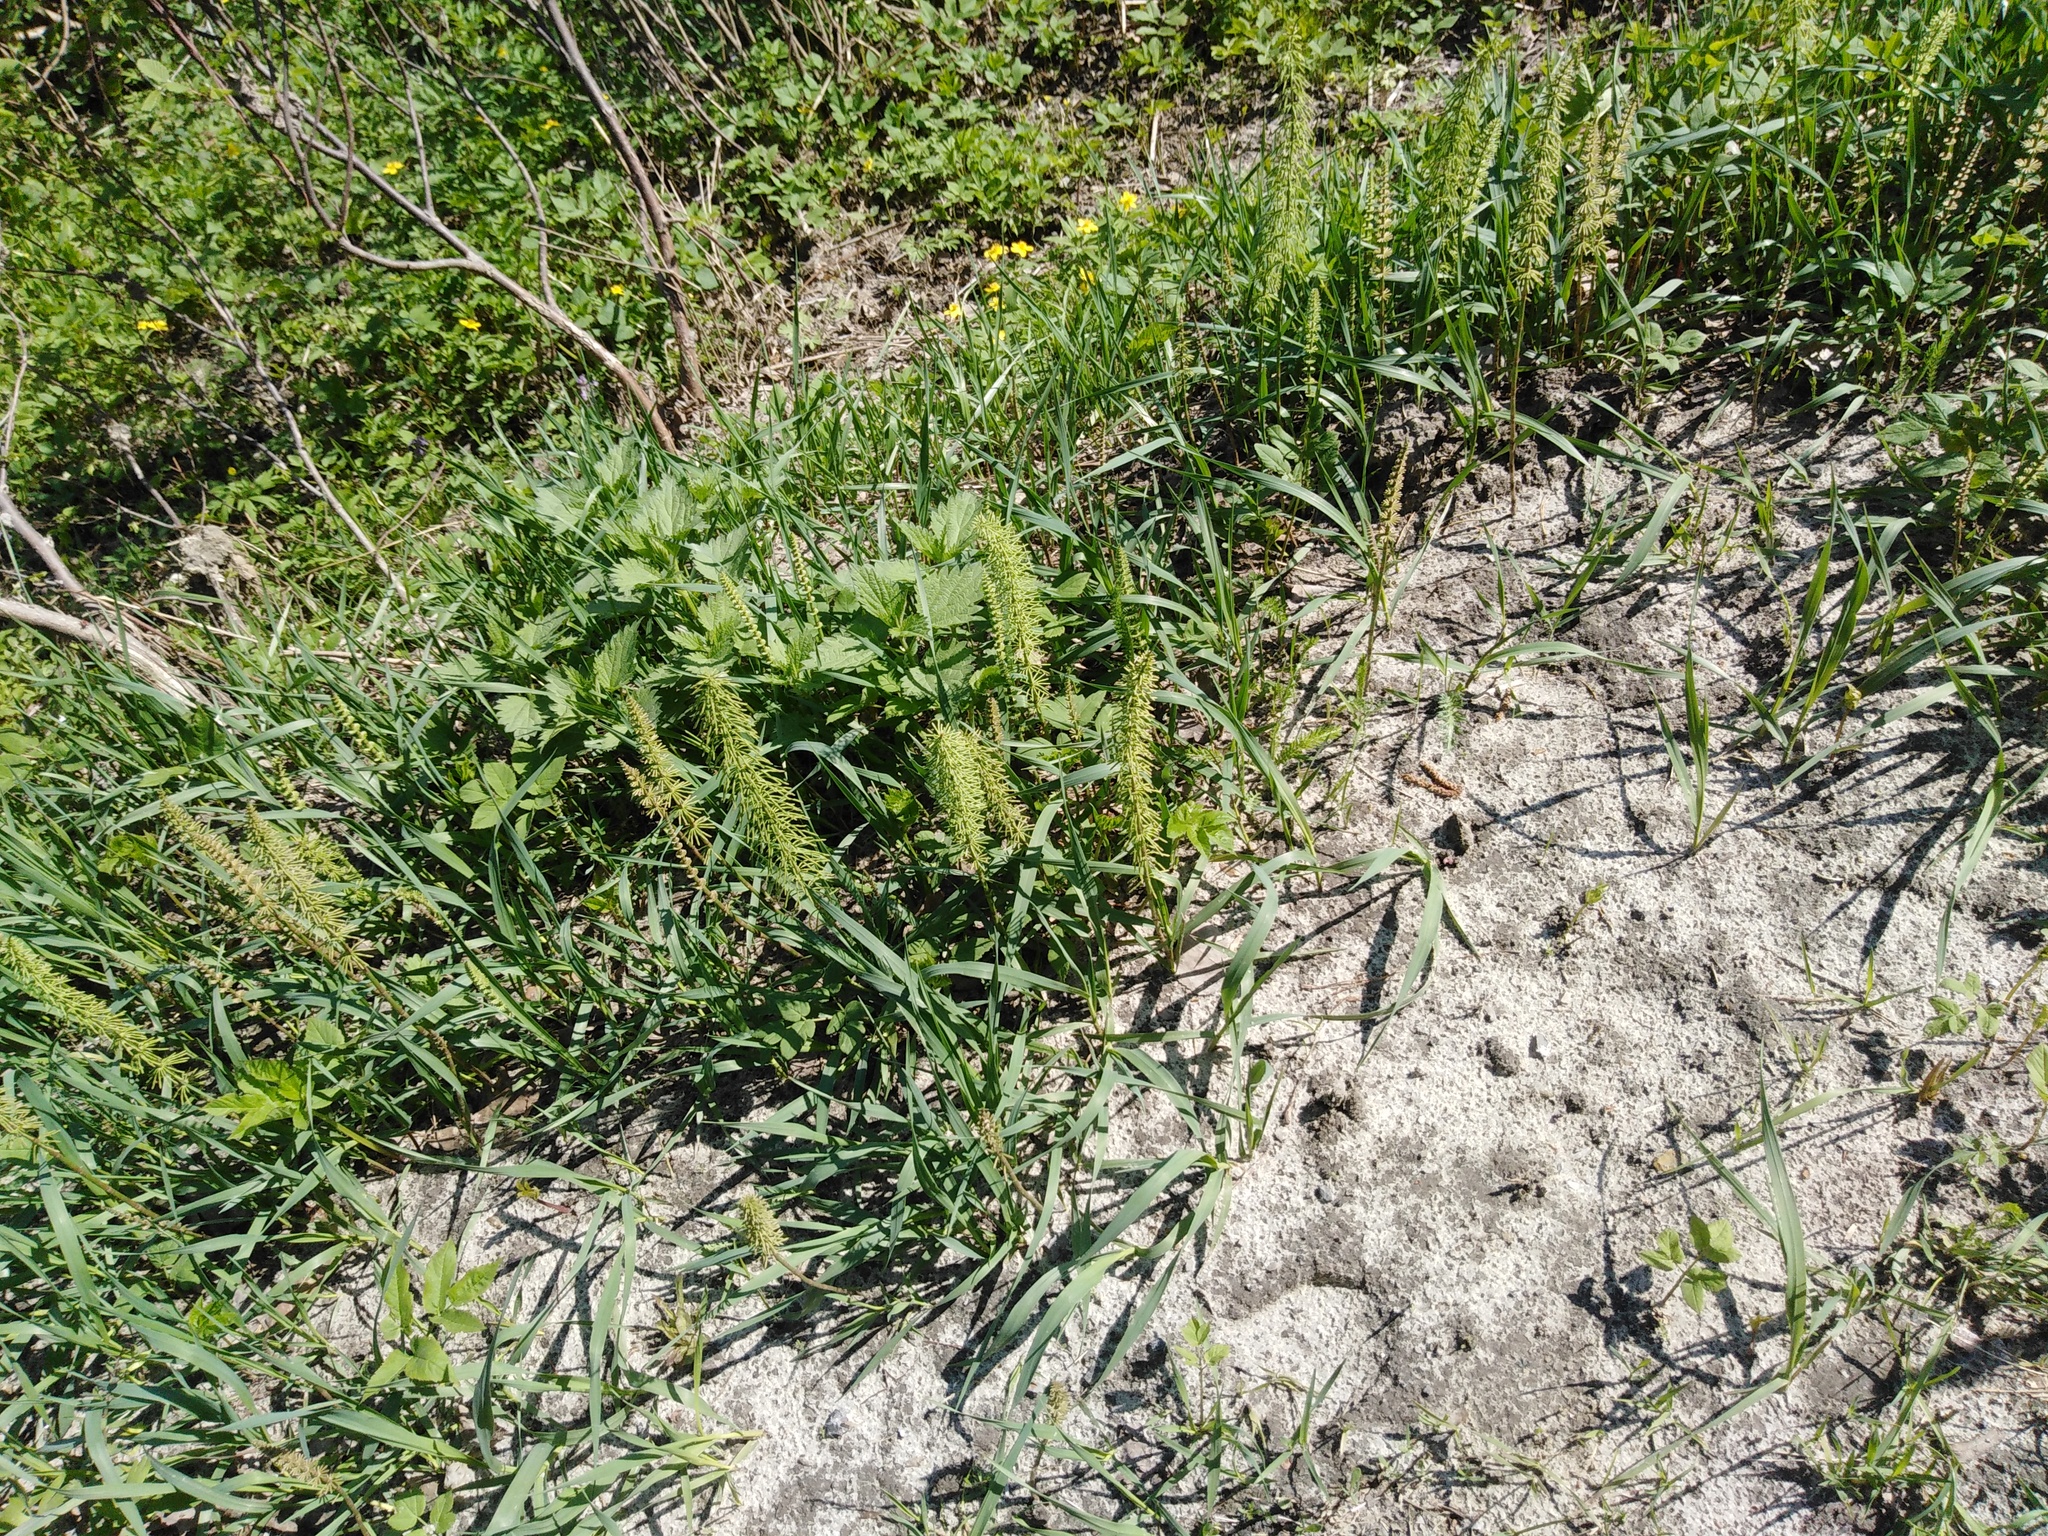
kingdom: Plantae
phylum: Tracheophyta
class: Polypodiopsida
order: Equisetales
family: Equisetaceae
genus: Equisetum
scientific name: Equisetum pratense
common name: Meadow horsetail
